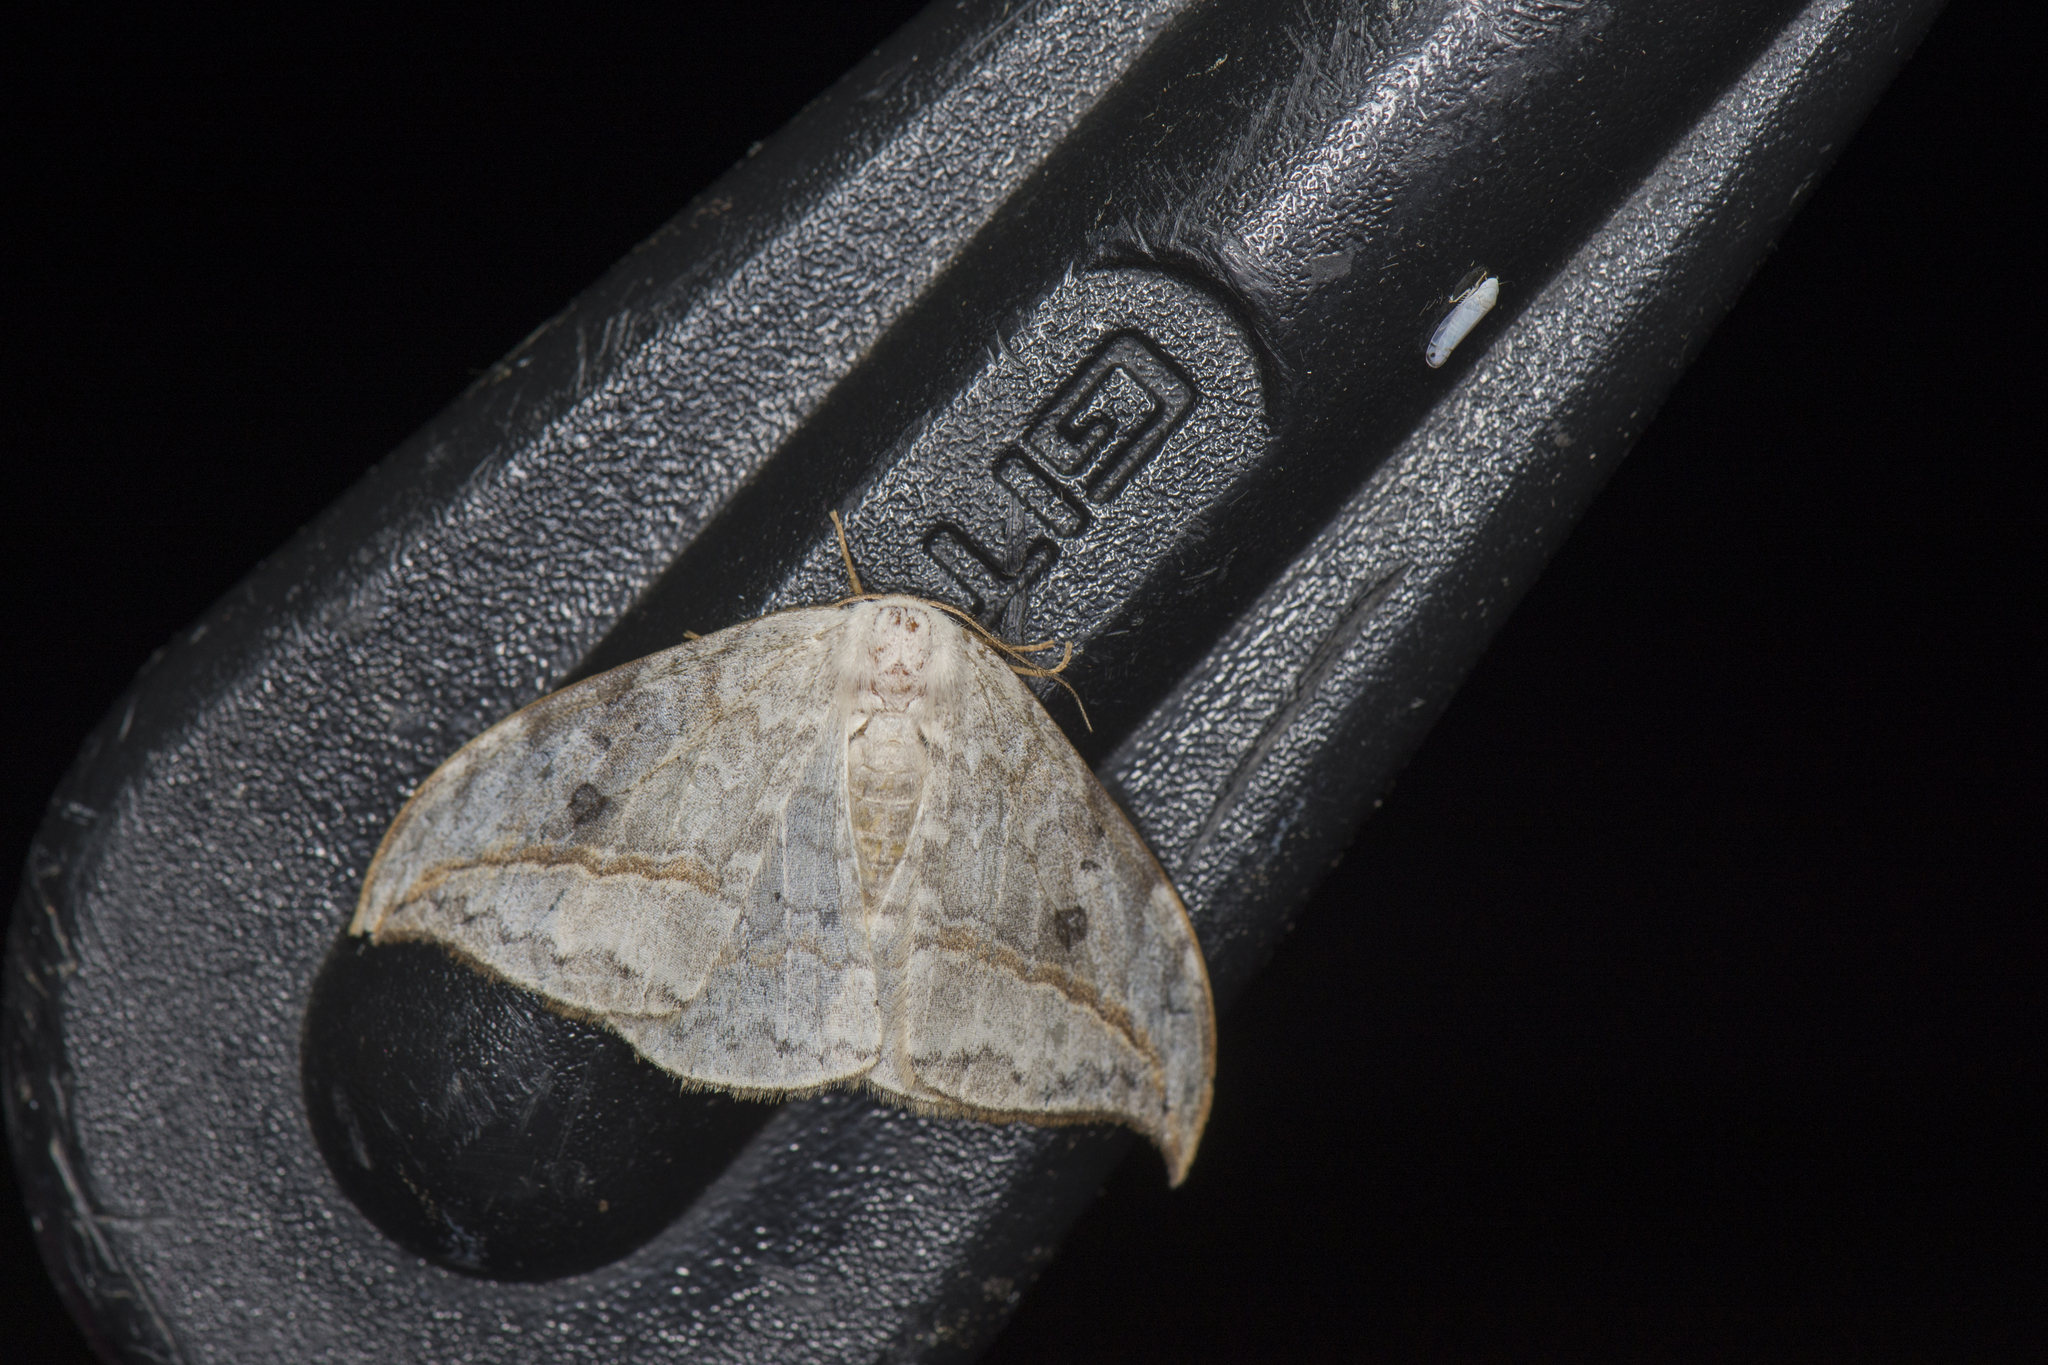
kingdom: Animalia
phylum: Arthropoda
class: Insecta
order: Lepidoptera
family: Drepanidae
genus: Drepana
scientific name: Drepana pallida
